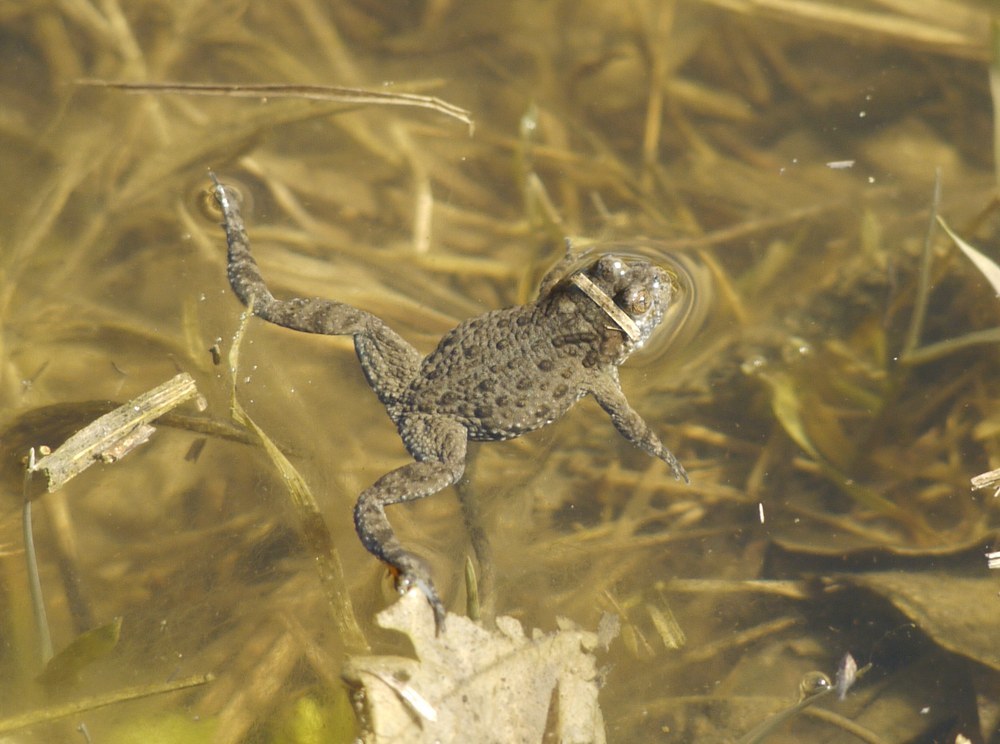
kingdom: Animalia
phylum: Chordata
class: Amphibia
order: Anura
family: Bombinatoridae
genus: Bombina
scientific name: Bombina bombina
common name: Fire-bellied toad
